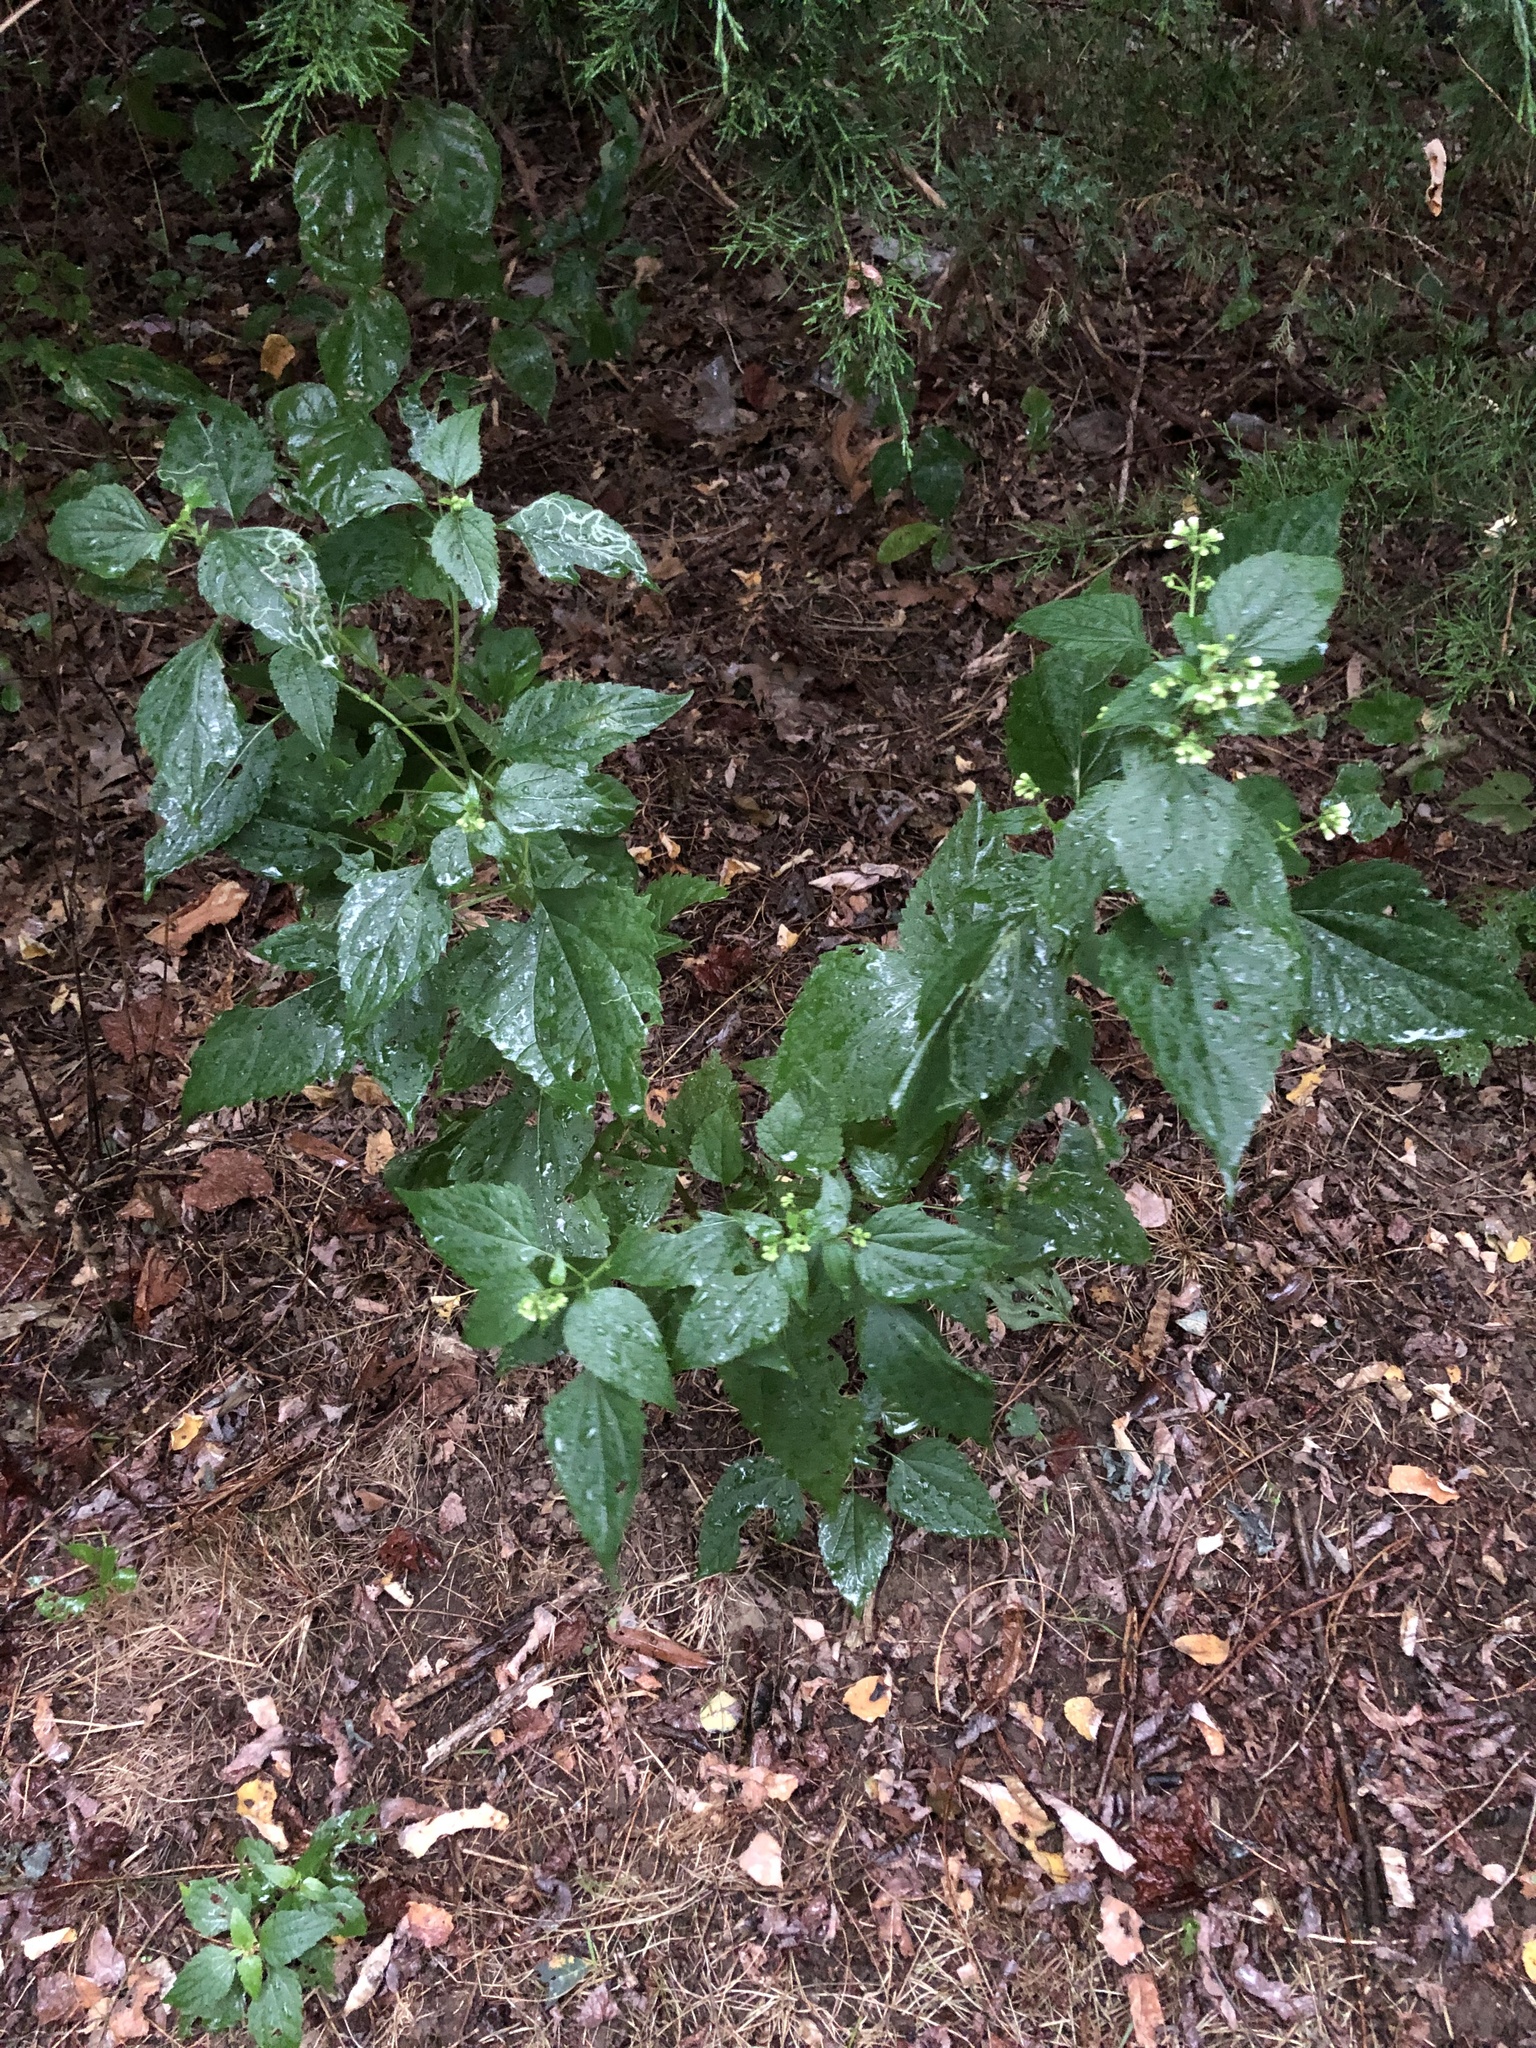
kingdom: Plantae
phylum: Tracheophyta
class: Magnoliopsida
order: Asterales
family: Asteraceae
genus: Ageratina
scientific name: Ageratina altissima
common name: White snakeroot
